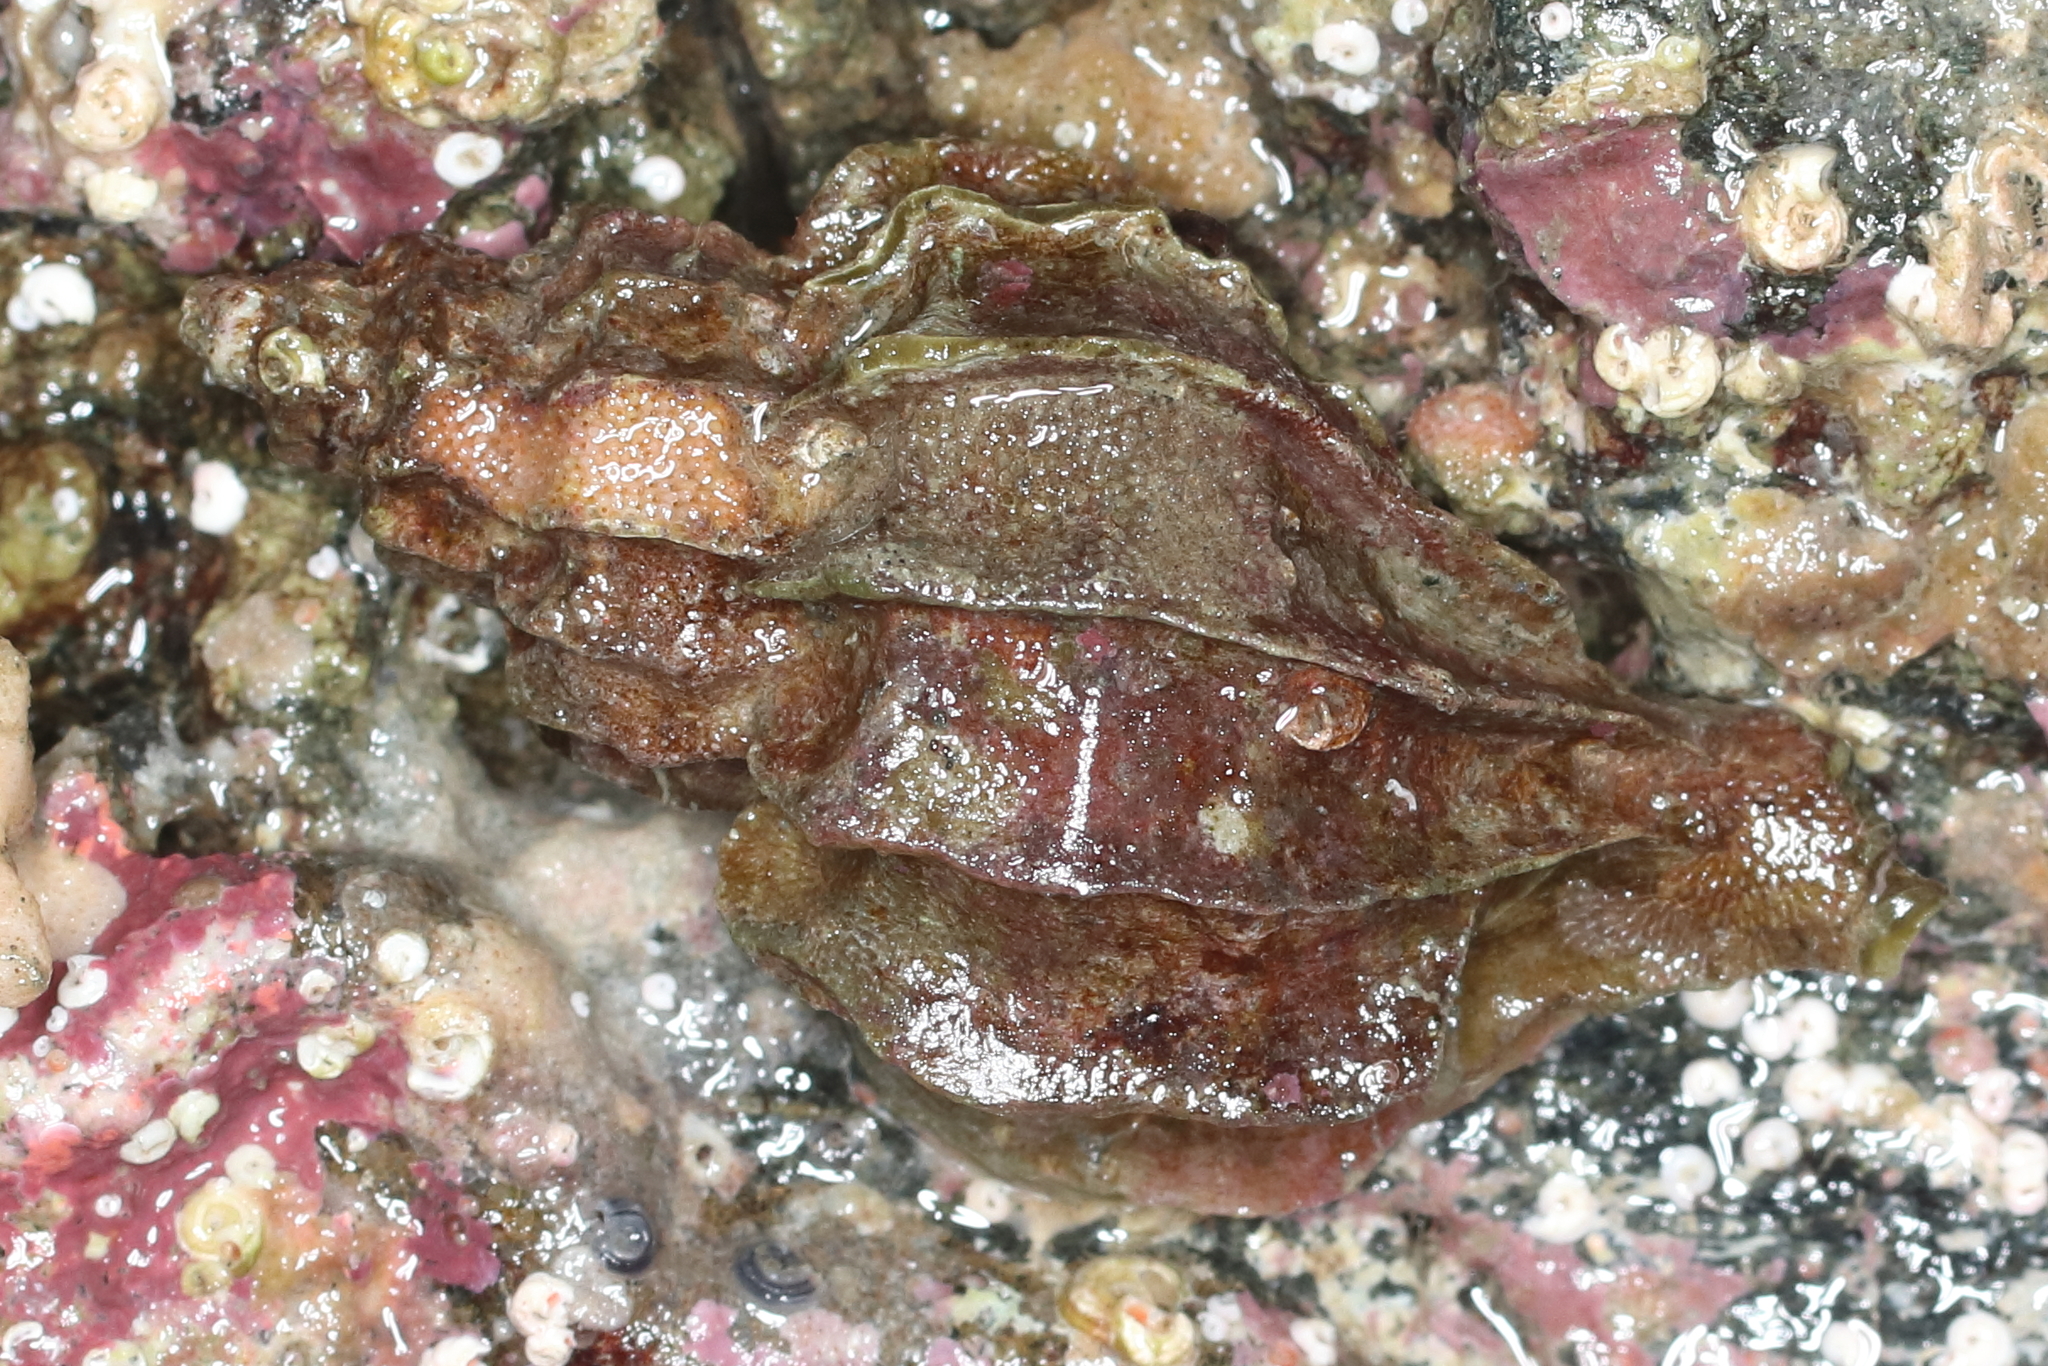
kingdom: Animalia
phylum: Mollusca
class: Gastropoda
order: Neogastropoda
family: Muricidae
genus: Scabrotrophon
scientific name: Scabrotrophon stuarti
